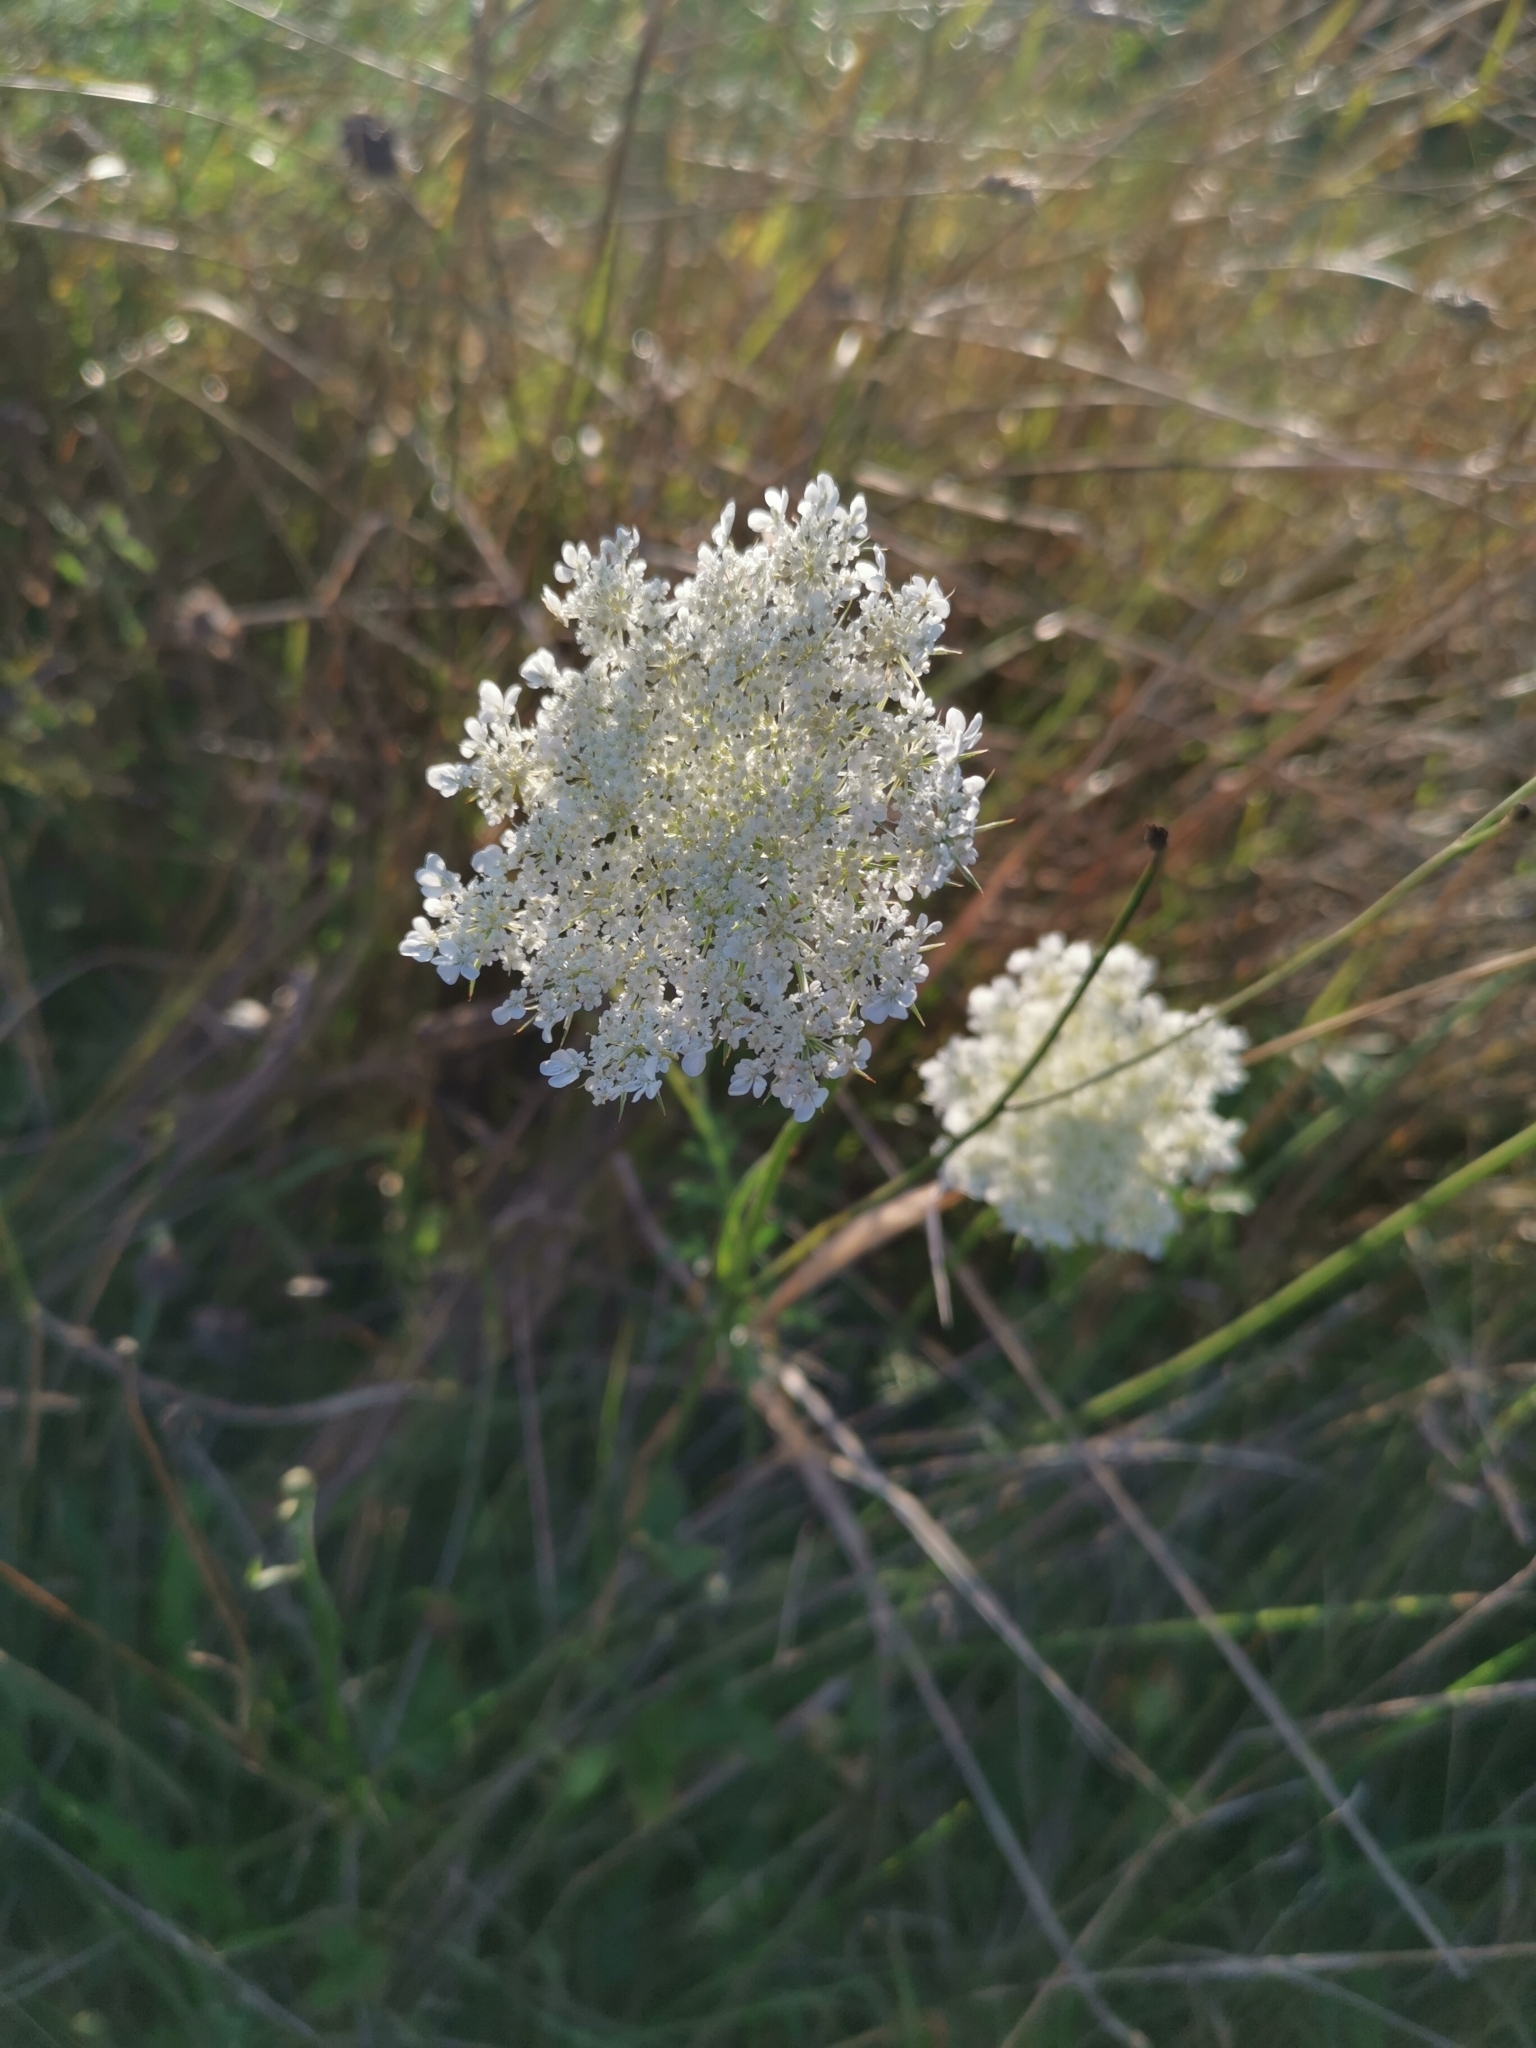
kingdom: Plantae
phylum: Tracheophyta
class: Magnoliopsida
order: Apiales
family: Apiaceae
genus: Daucus
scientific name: Daucus carota
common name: Wild carrot
